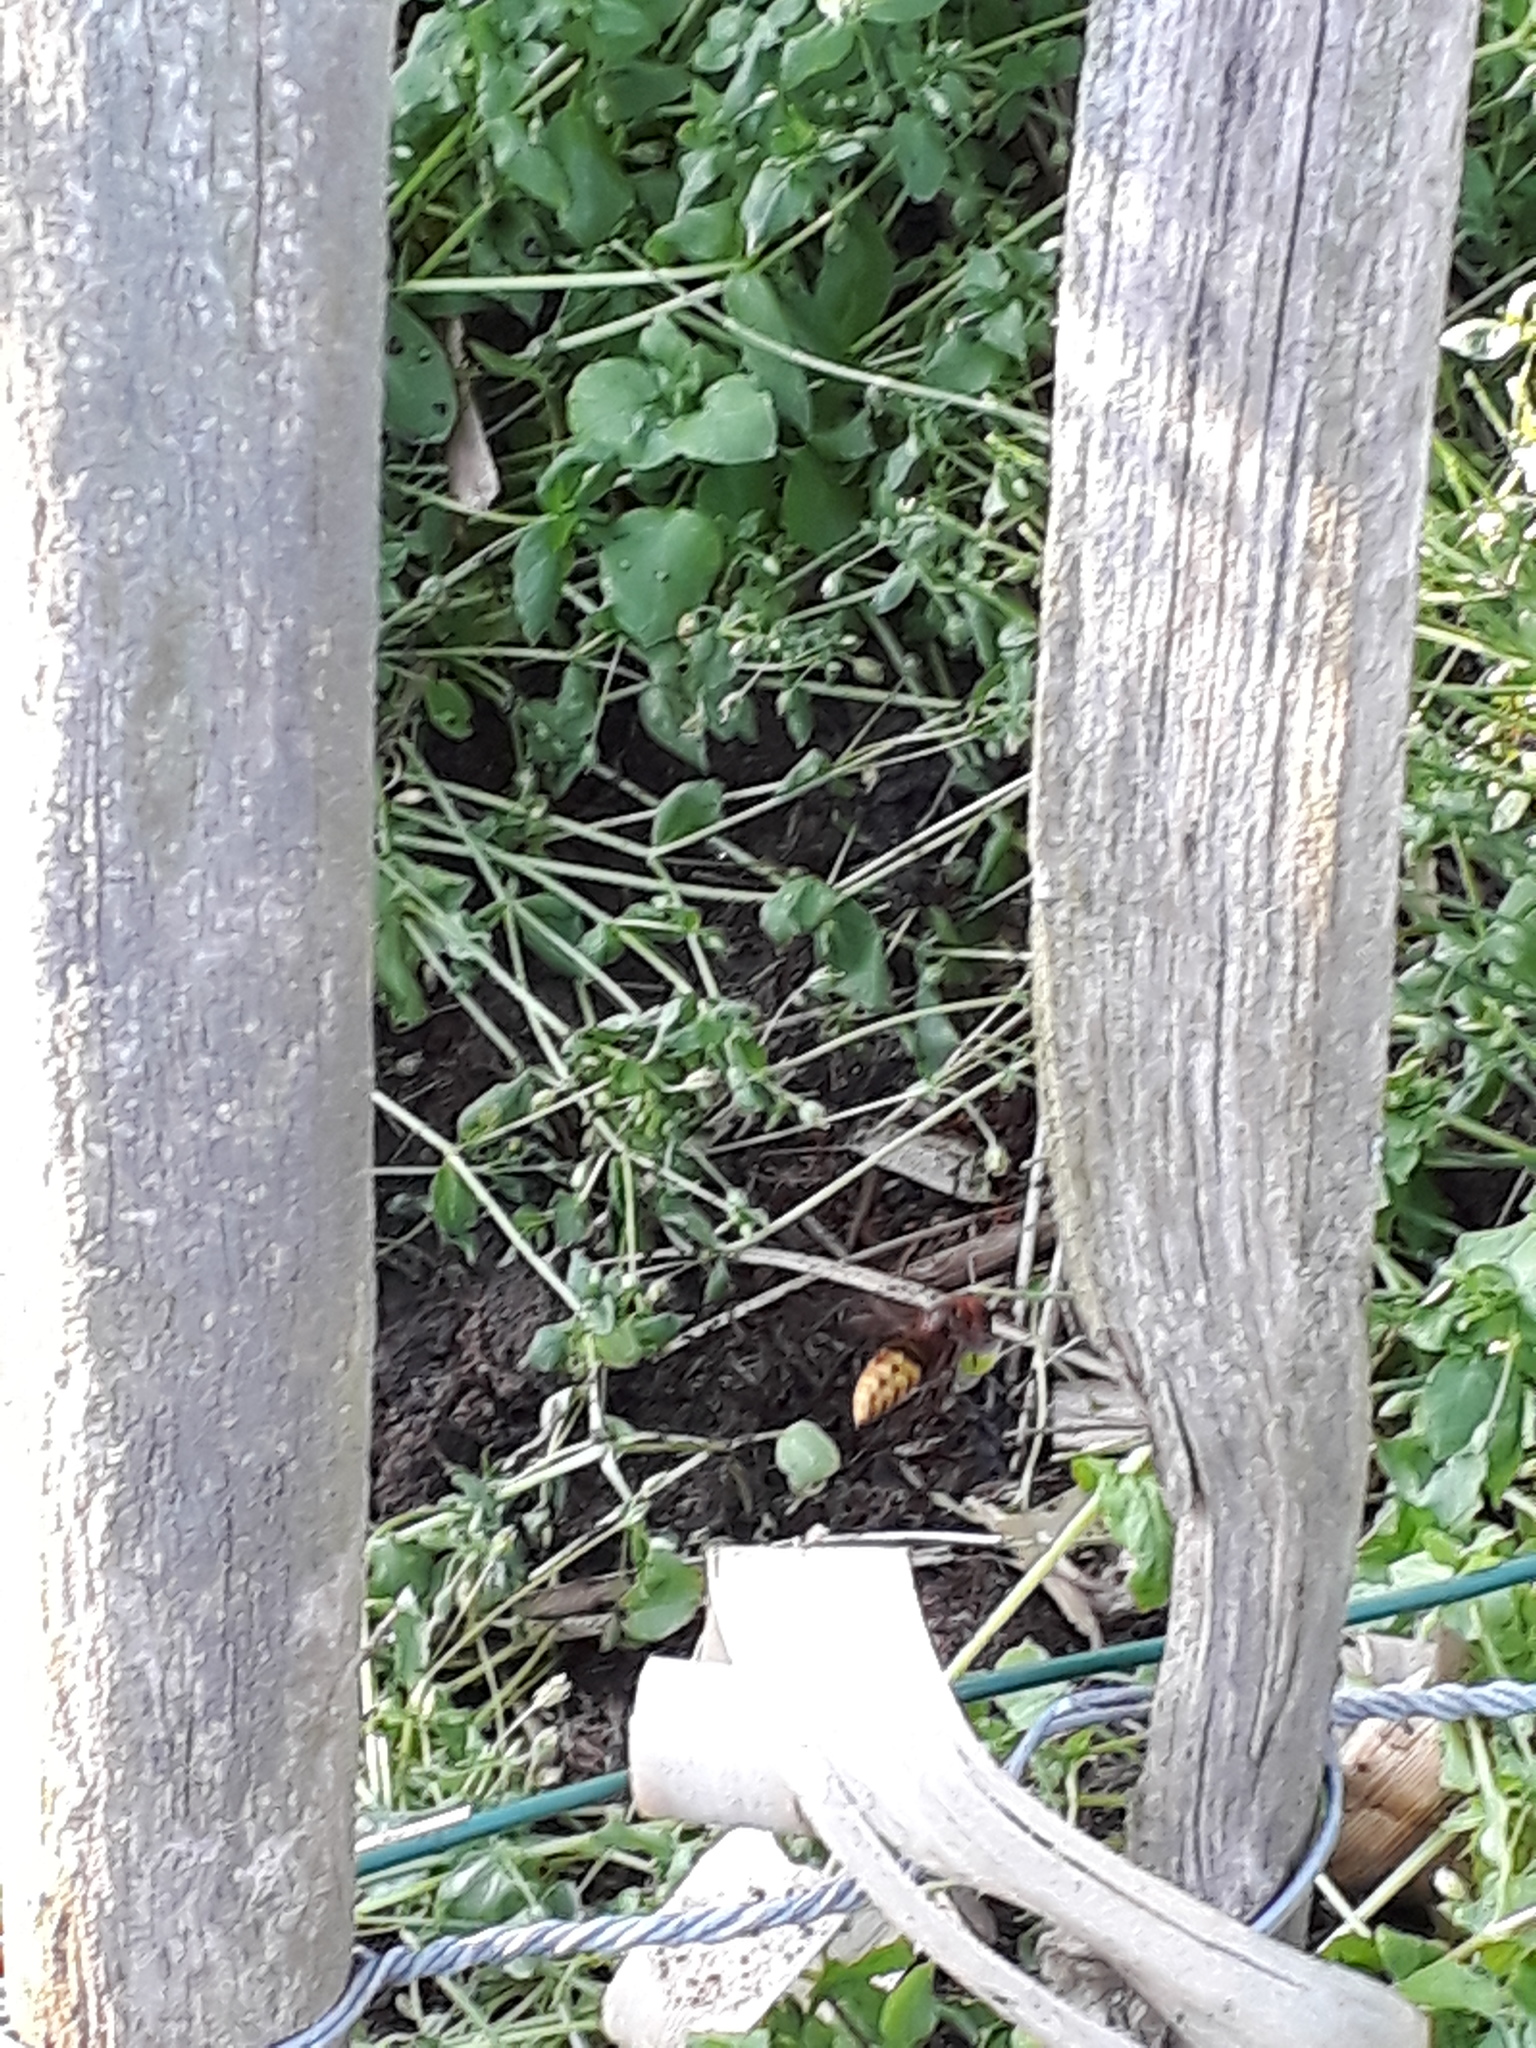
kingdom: Animalia
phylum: Arthropoda
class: Insecta
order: Hymenoptera
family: Vespidae
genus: Vespa
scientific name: Vespa crabro
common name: Hornet
